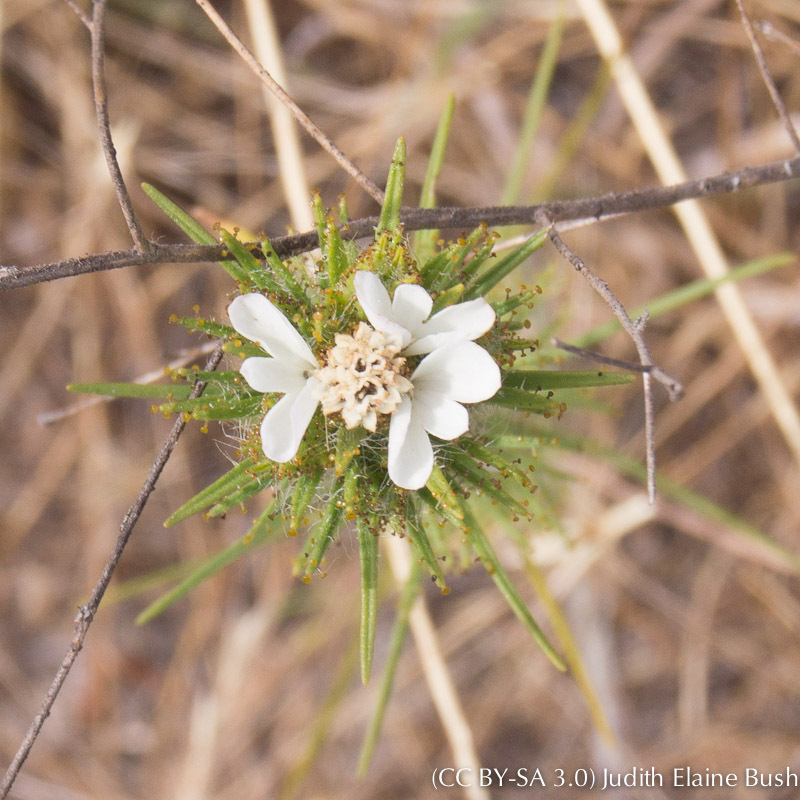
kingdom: Plantae
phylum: Tracheophyta
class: Magnoliopsida
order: Asterales
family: Asteraceae
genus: Calycadenia
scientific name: Calycadenia multiglandulosa
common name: Sticky calycadenia
